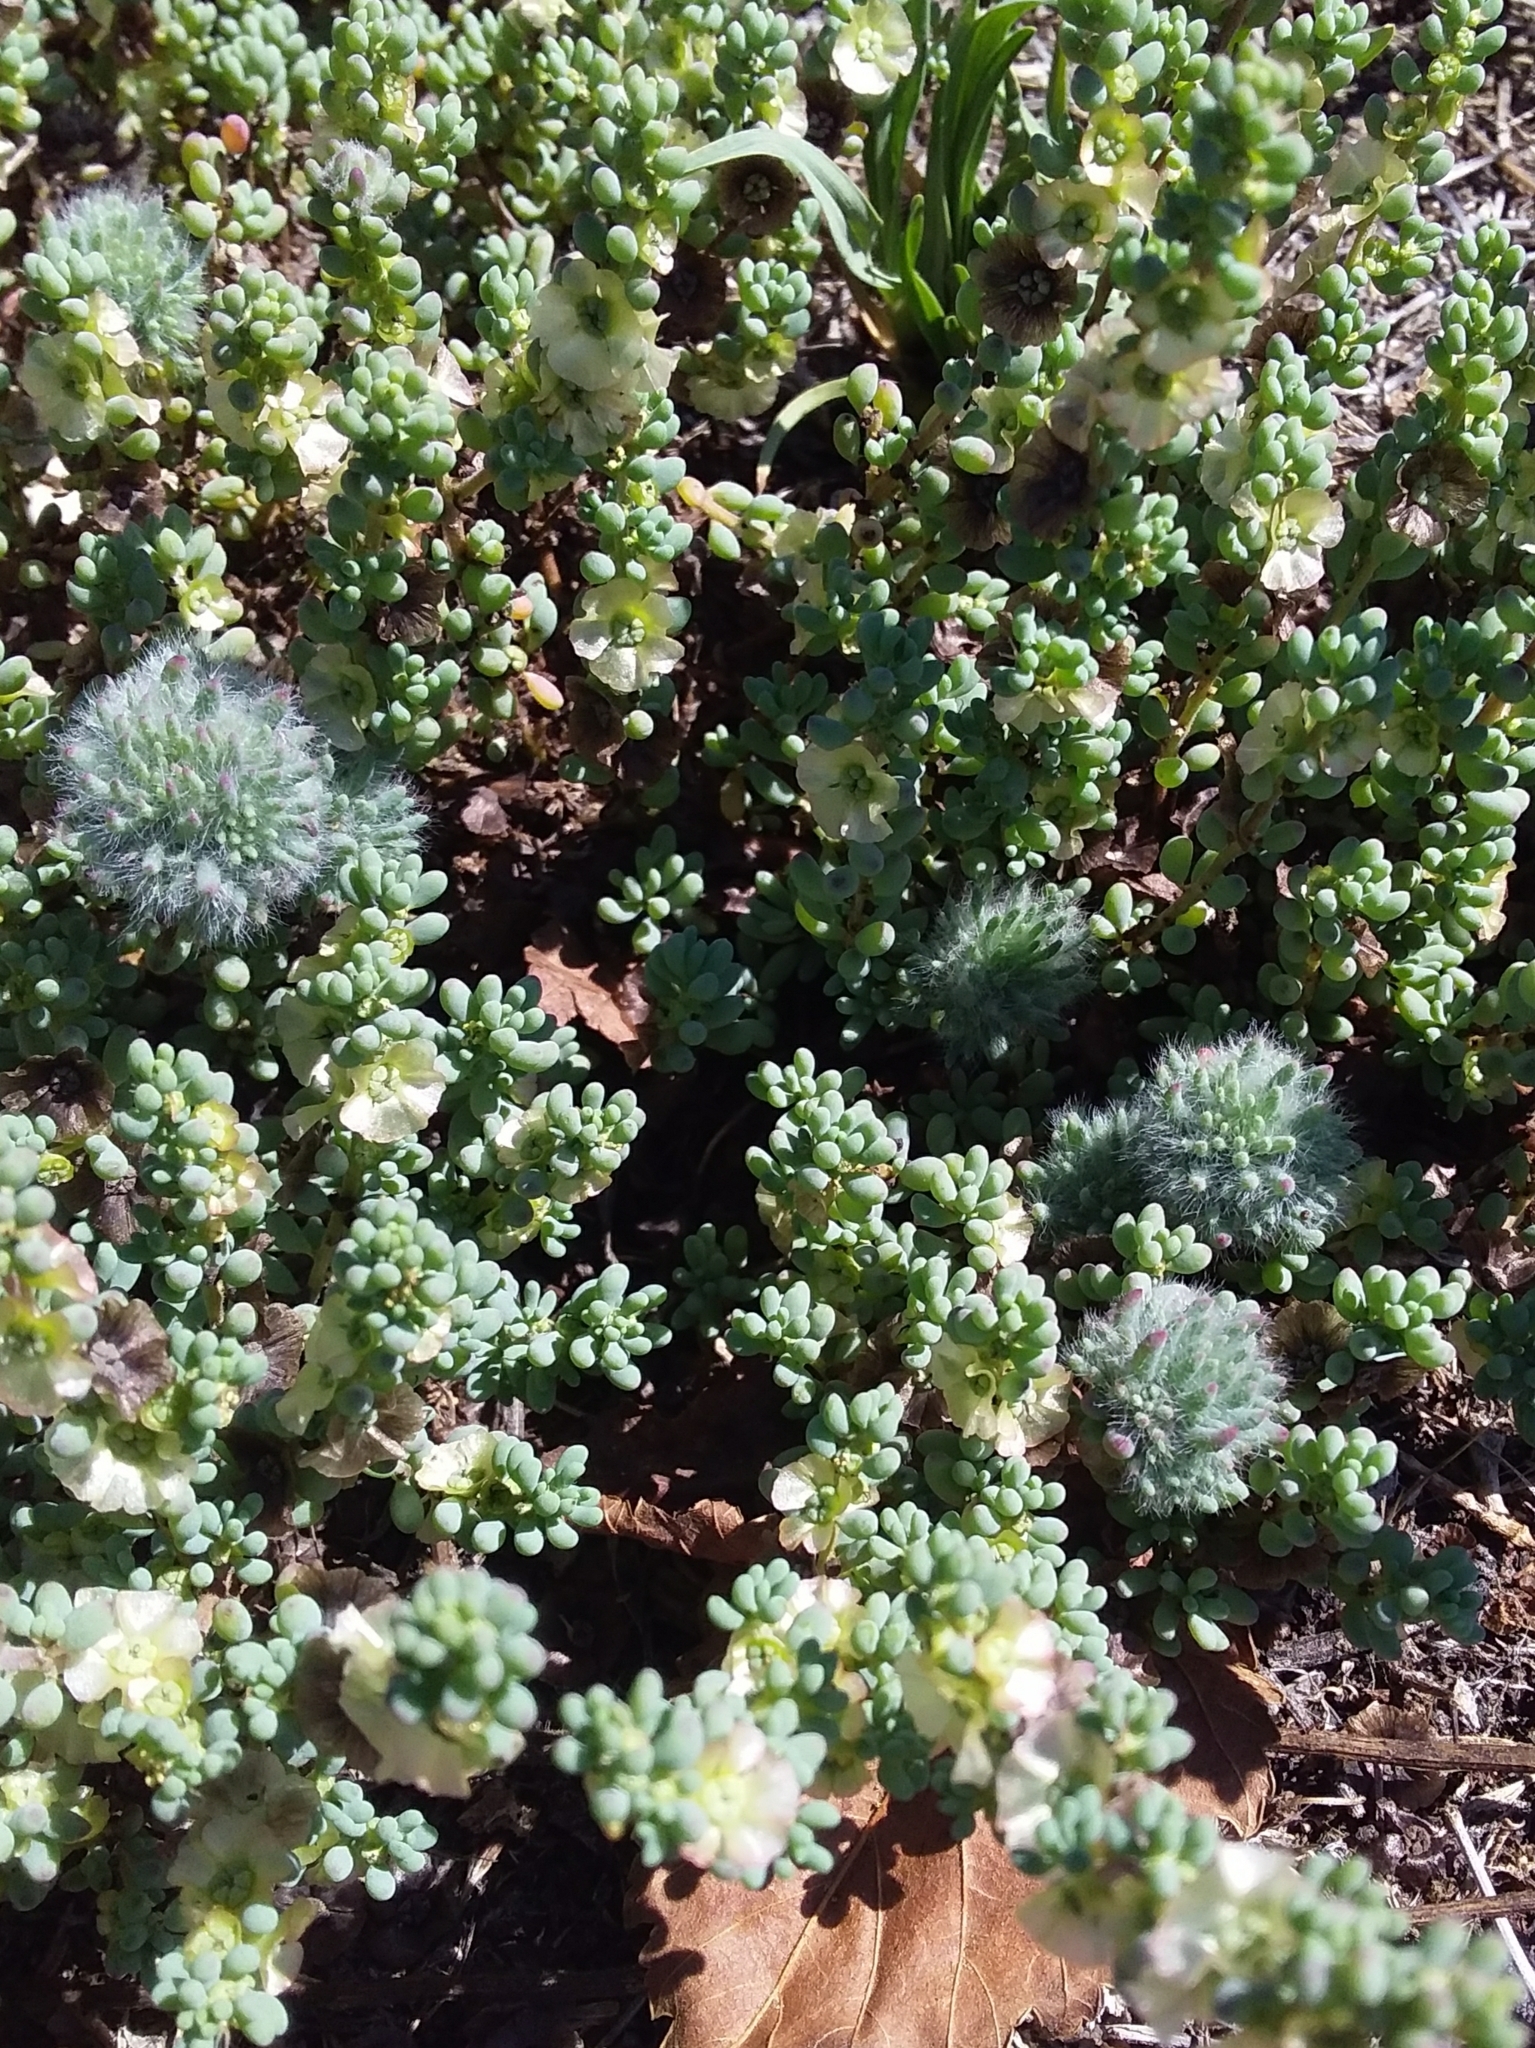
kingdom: Animalia
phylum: Arthropoda
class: Insecta
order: Diptera
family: Cecidomyiidae
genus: Dactylasioptera
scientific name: Dactylasioptera milnae
